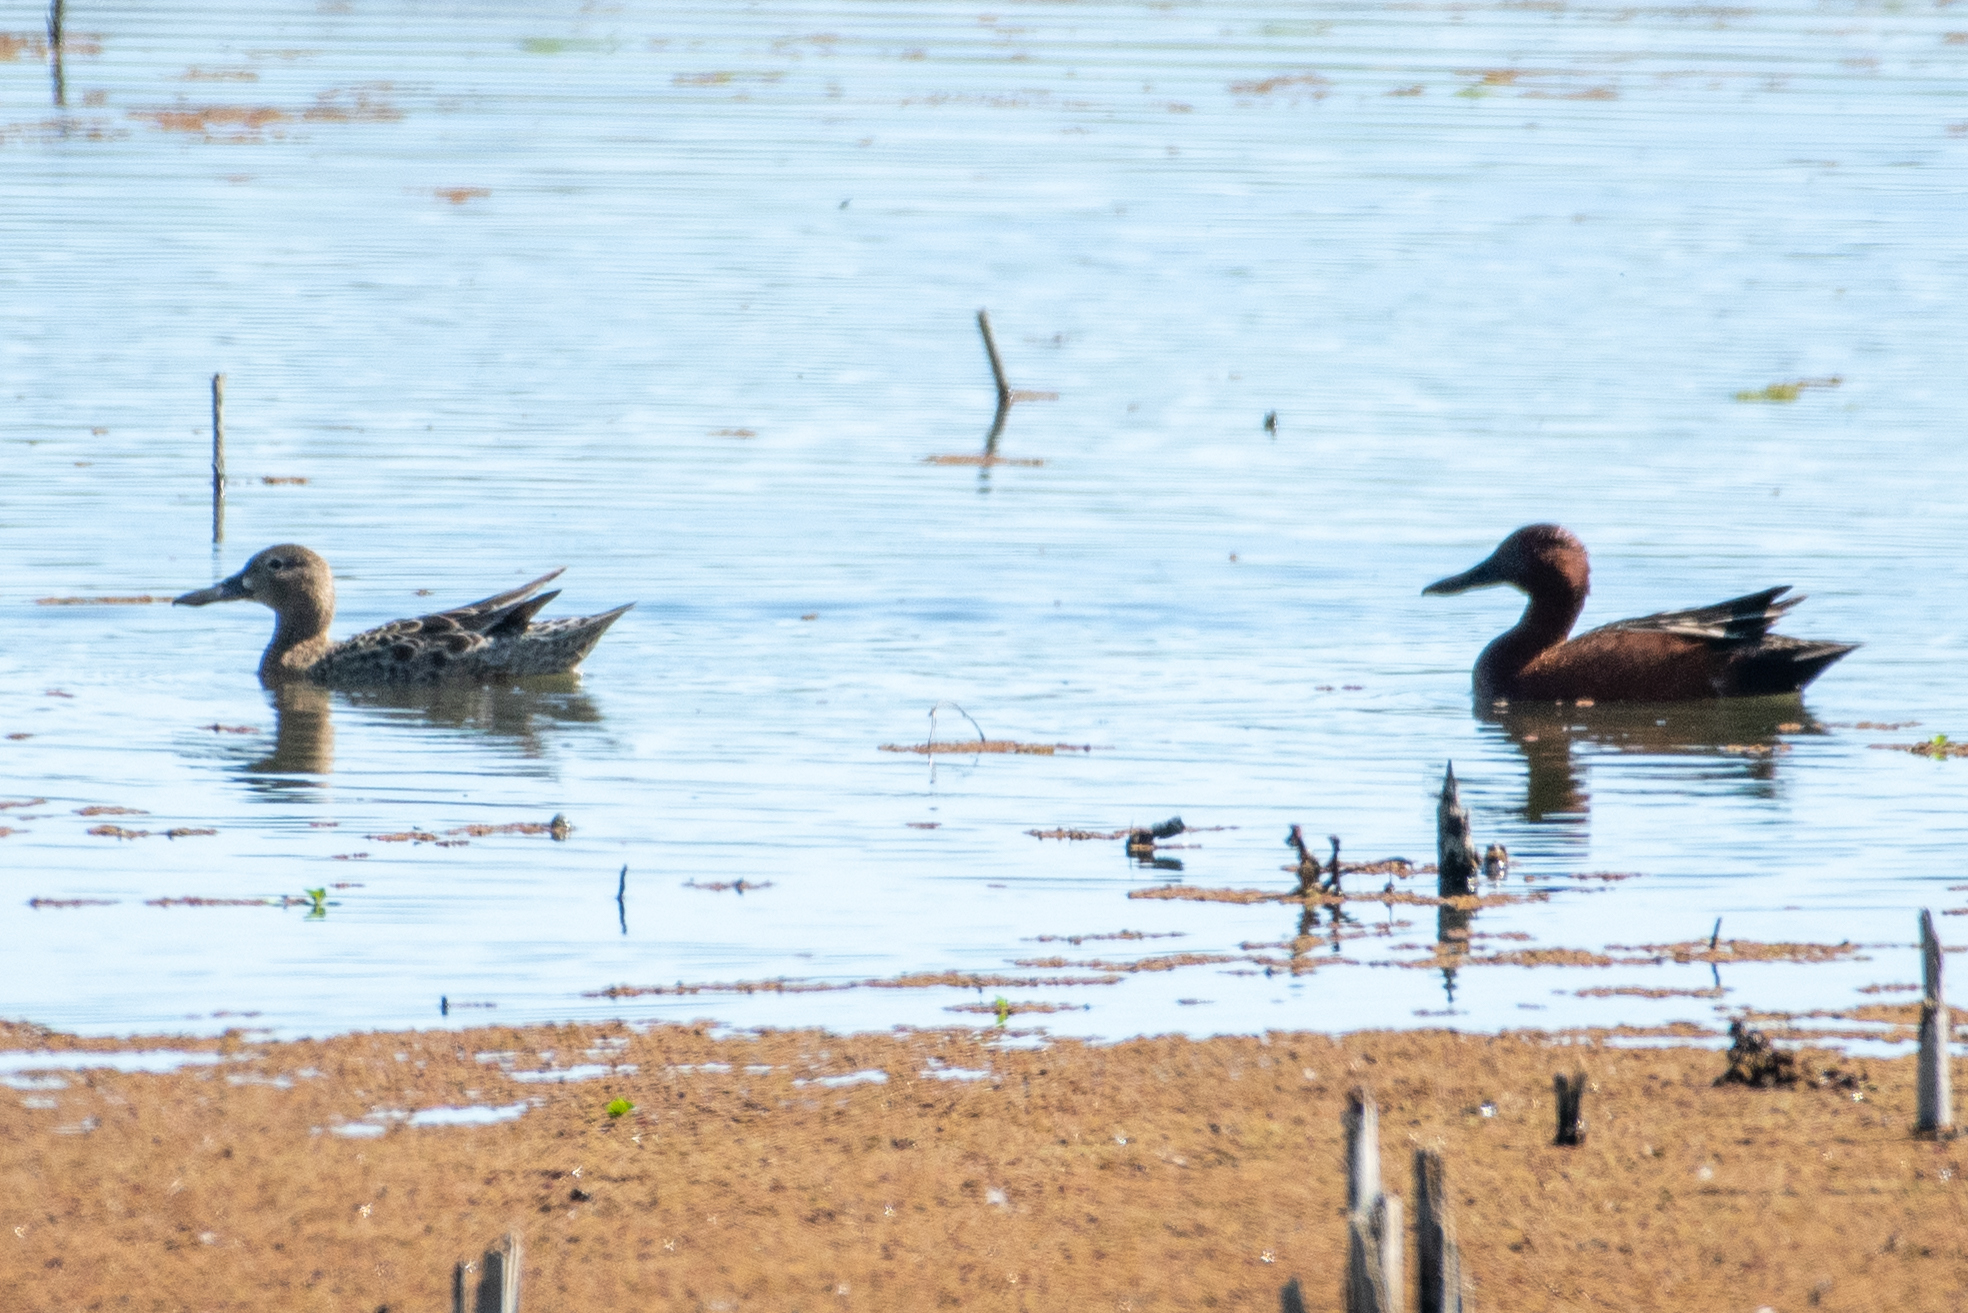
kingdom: Animalia
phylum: Chordata
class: Aves
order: Anseriformes
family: Anatidae
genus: Spatula
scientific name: Spatula cyanoptera
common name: Cinnamon teal
